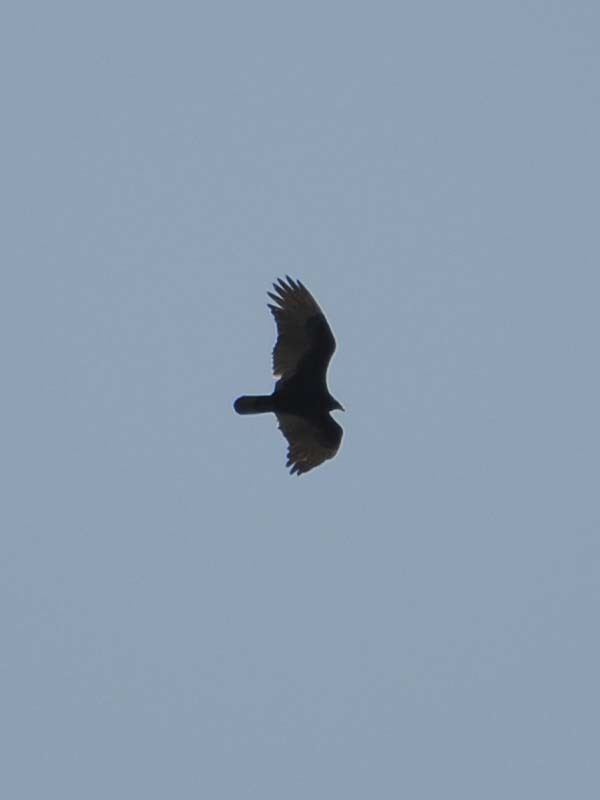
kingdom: Animalia
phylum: Chordata
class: Aves
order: Accipitriformes
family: Cathartidae
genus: Cathartes
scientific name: Cathartes aura
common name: Turkey vulture
